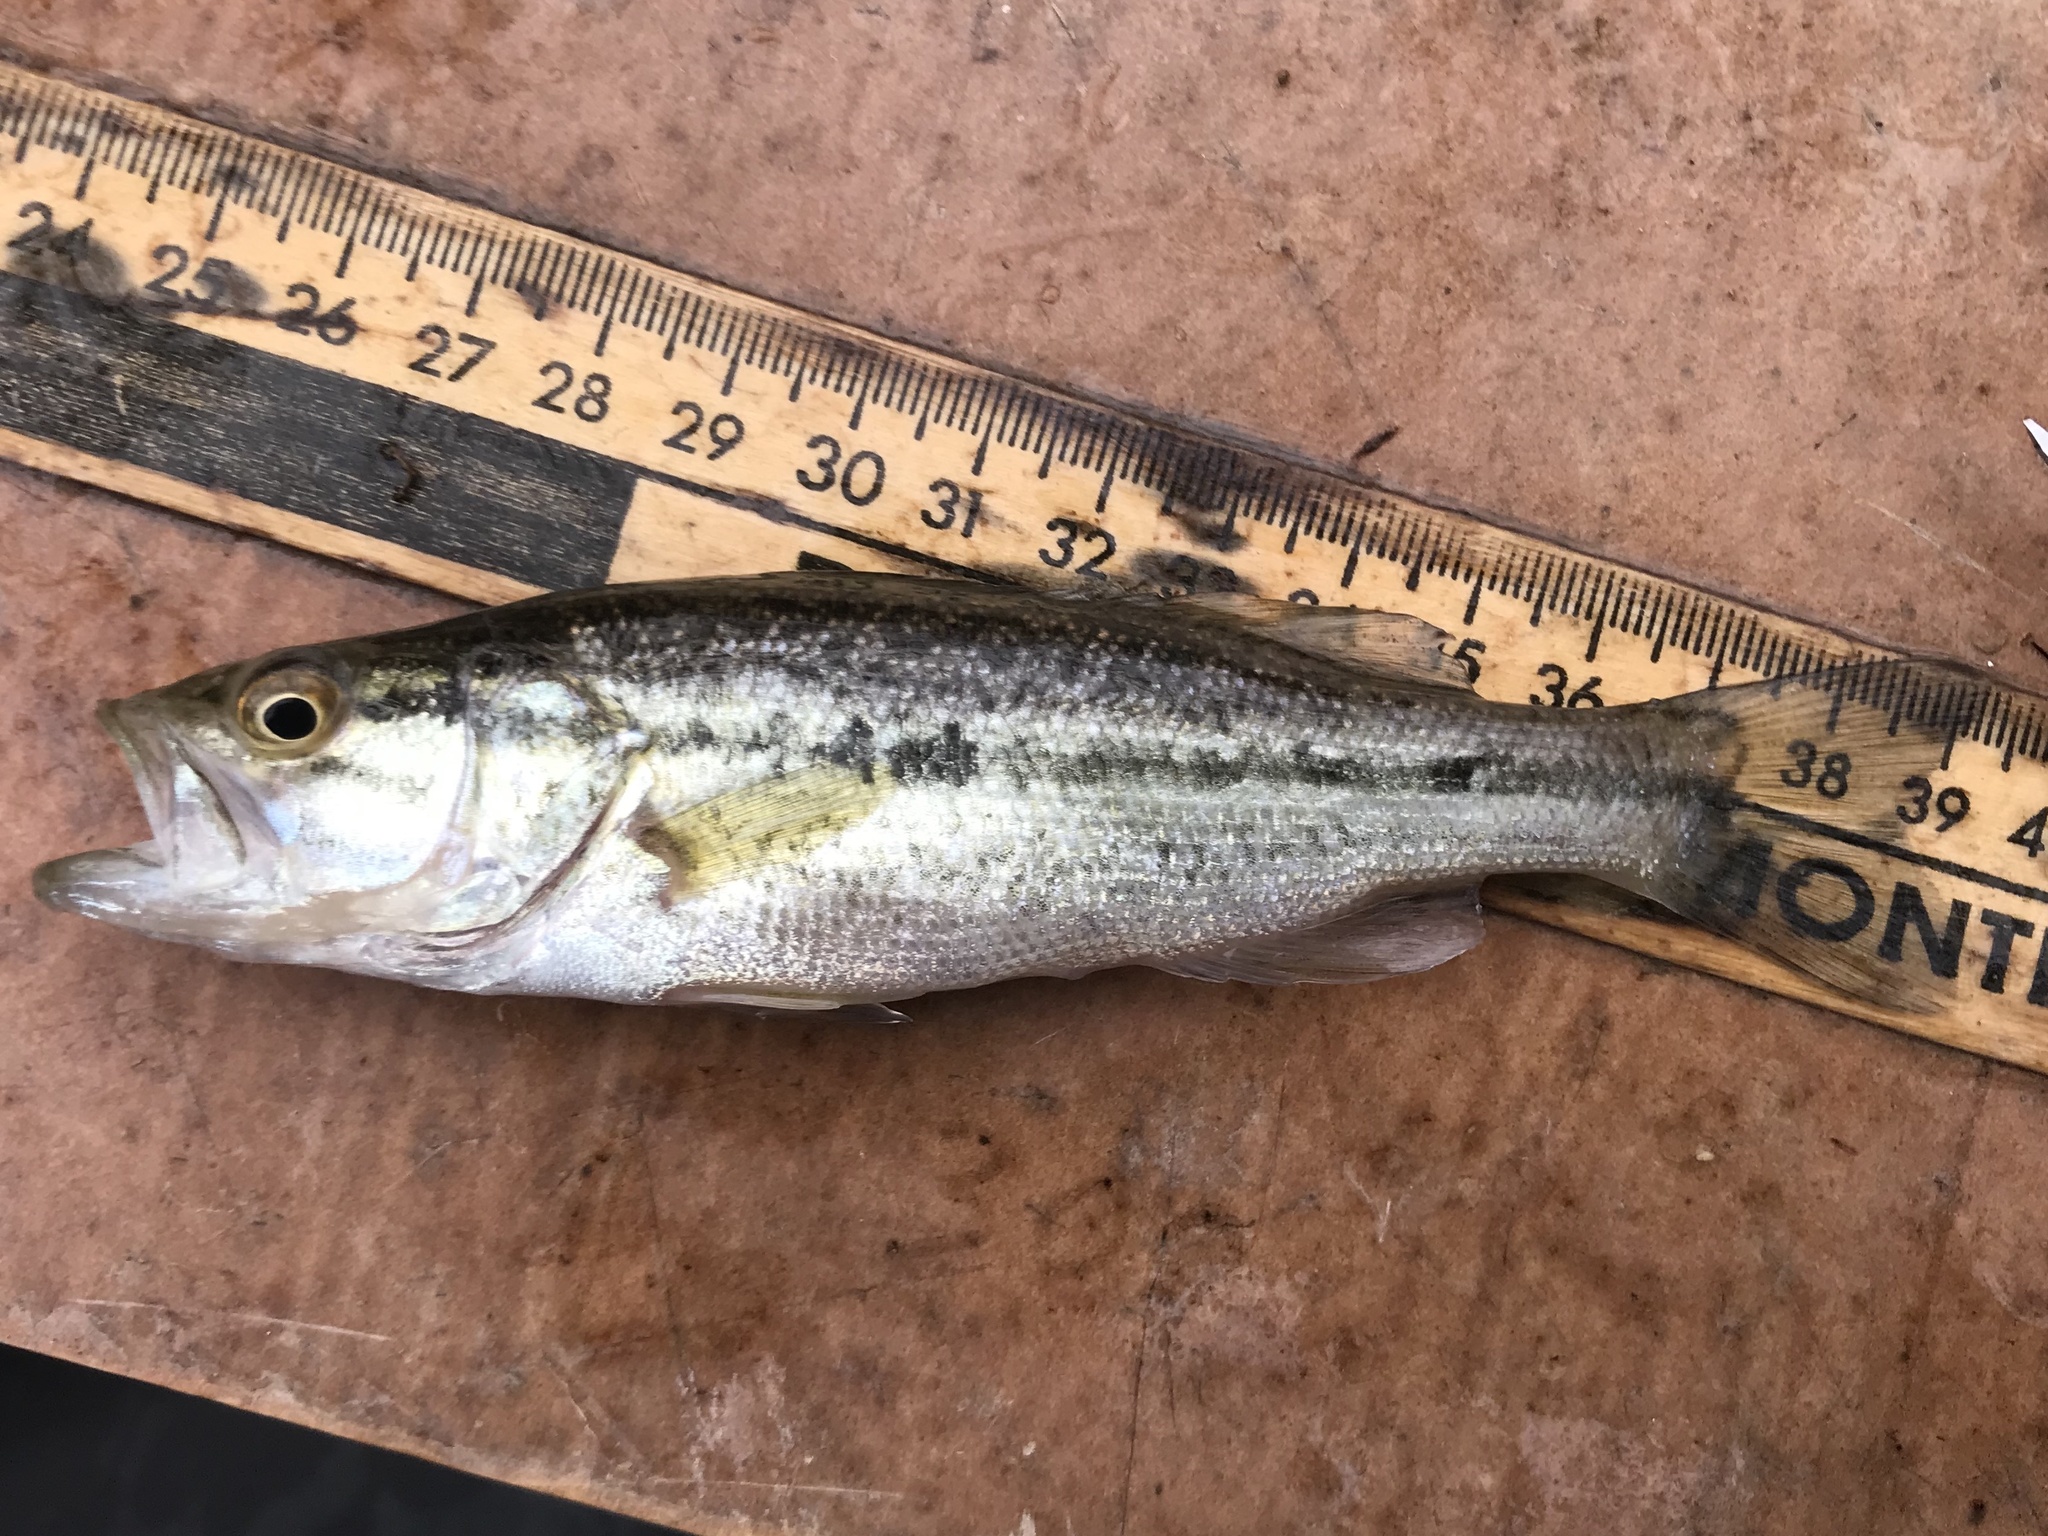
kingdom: Animalia
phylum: Chordata
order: Perciformes
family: Centrarchidae
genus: Micropterus
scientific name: Micropterus
